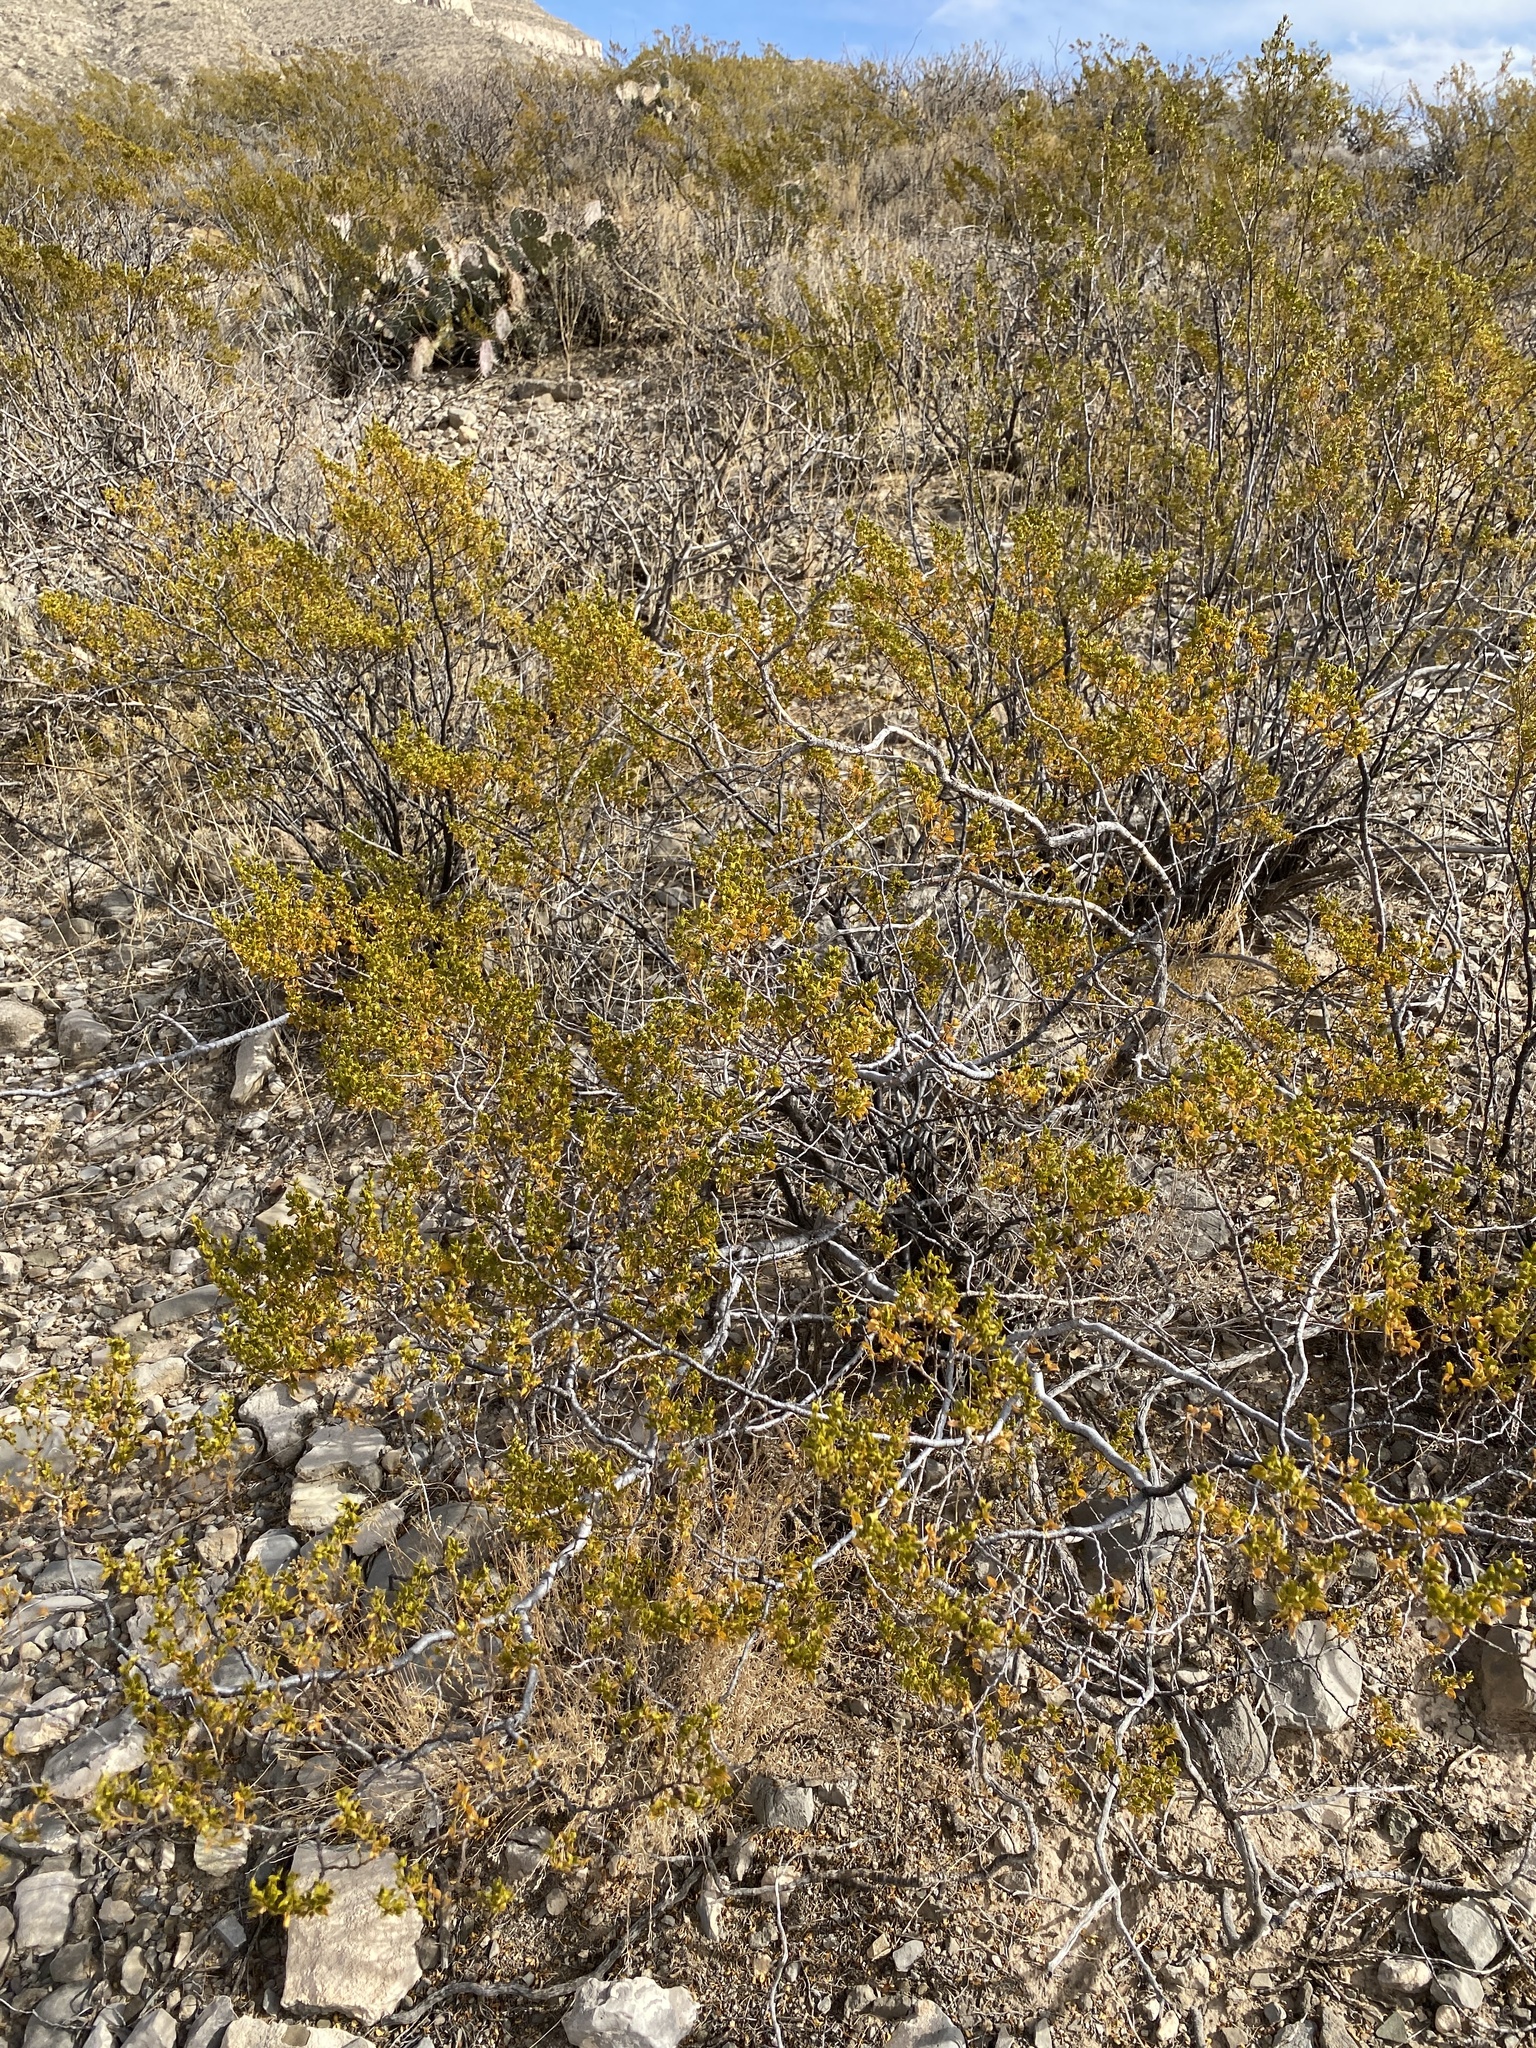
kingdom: Plantae
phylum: Tracheophyta
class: Magnoliopsida
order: Zygophyllales
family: Zygophyllaceae
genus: Larrea
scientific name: Larrea tridentata
